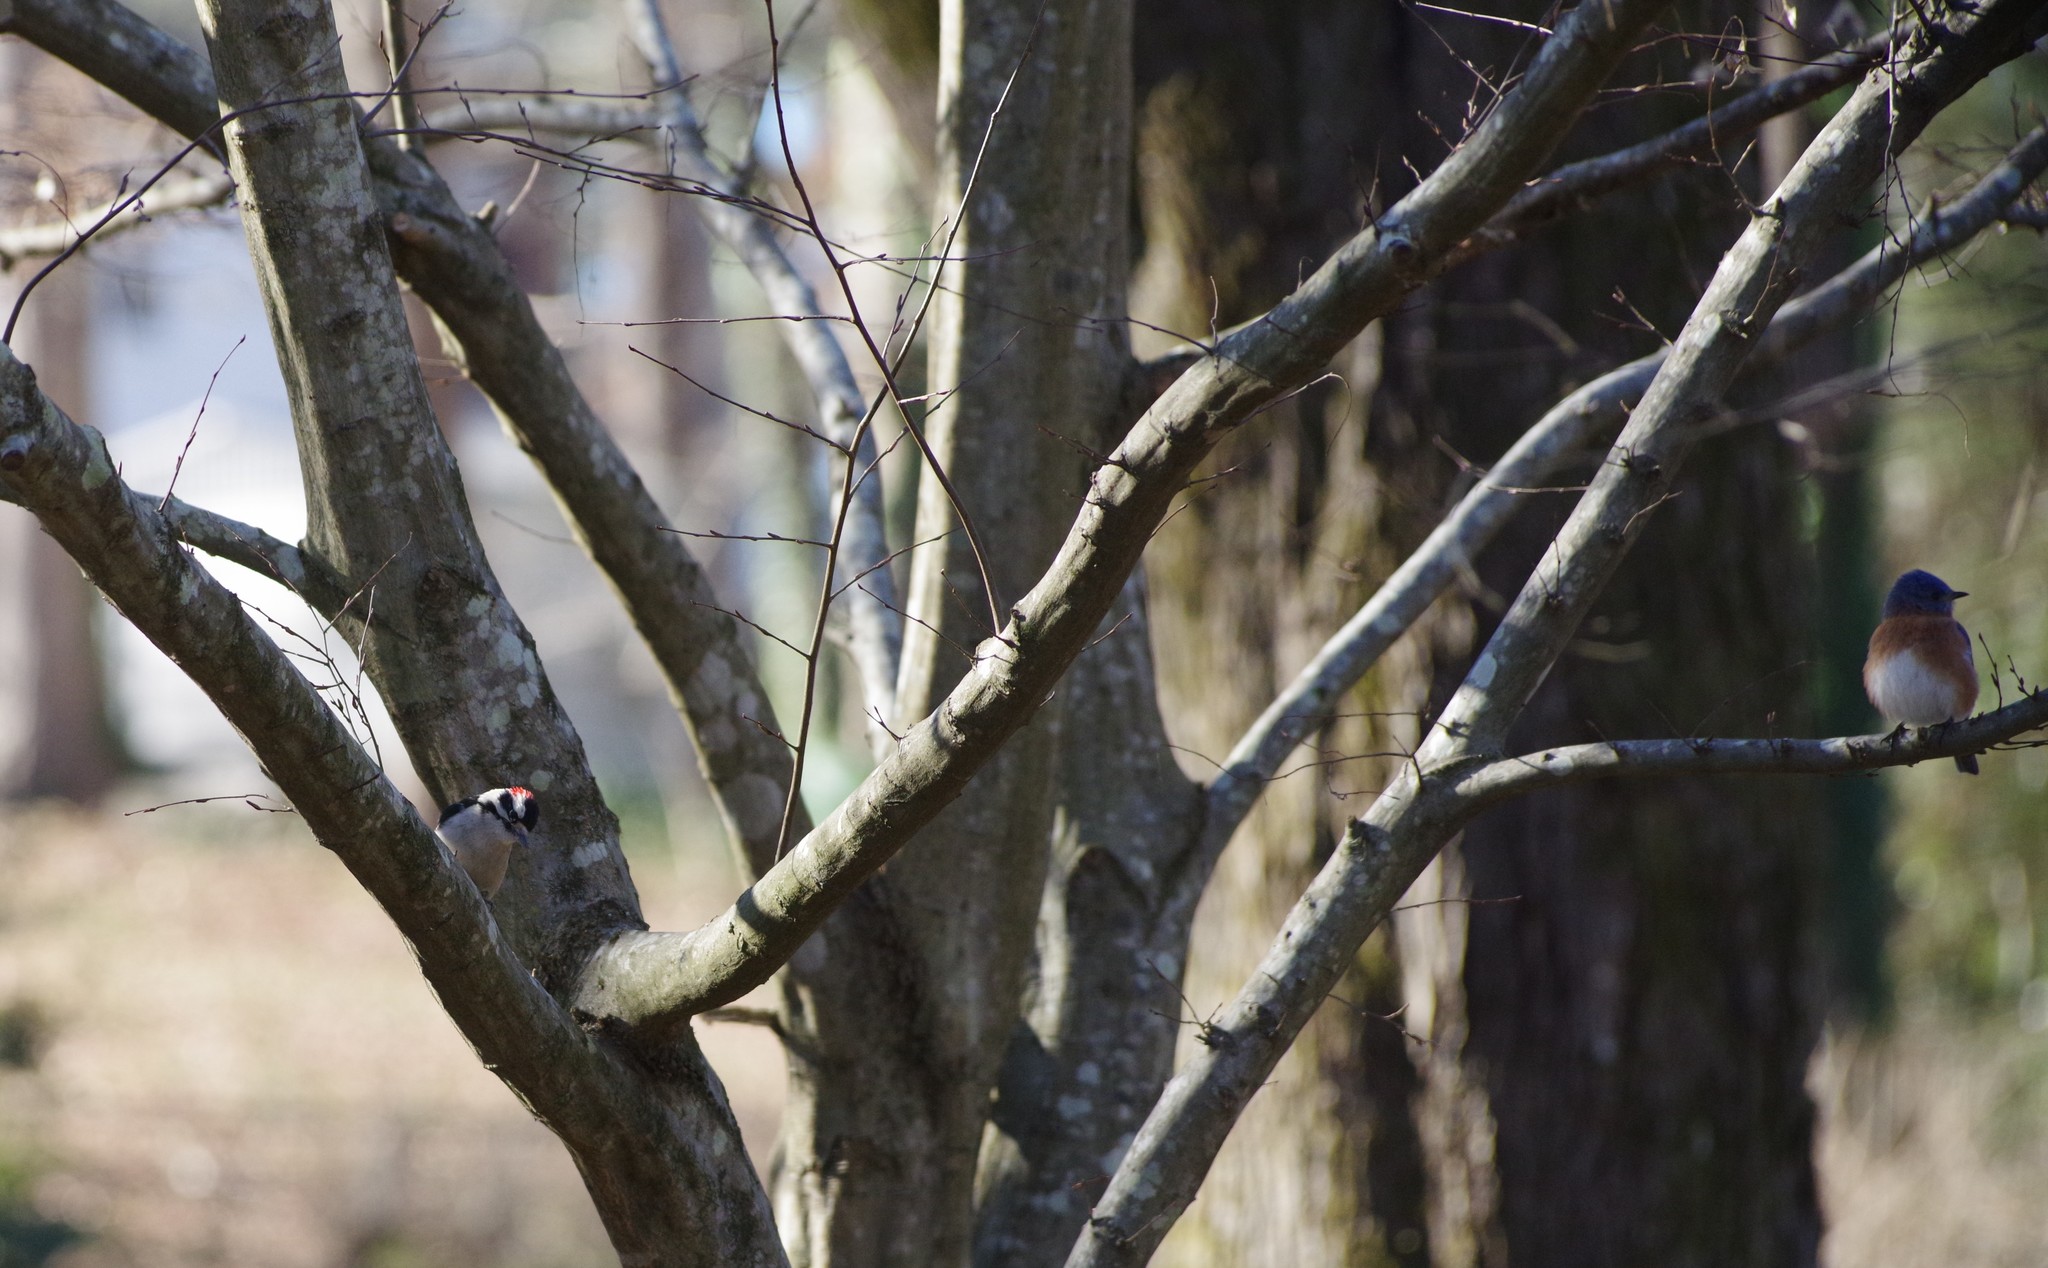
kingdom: Animalia
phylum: Chordata
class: Aves
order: Piciformes
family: Picidae
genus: Dryobates
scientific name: Dryobates pubescens
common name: Downy woodpecker
